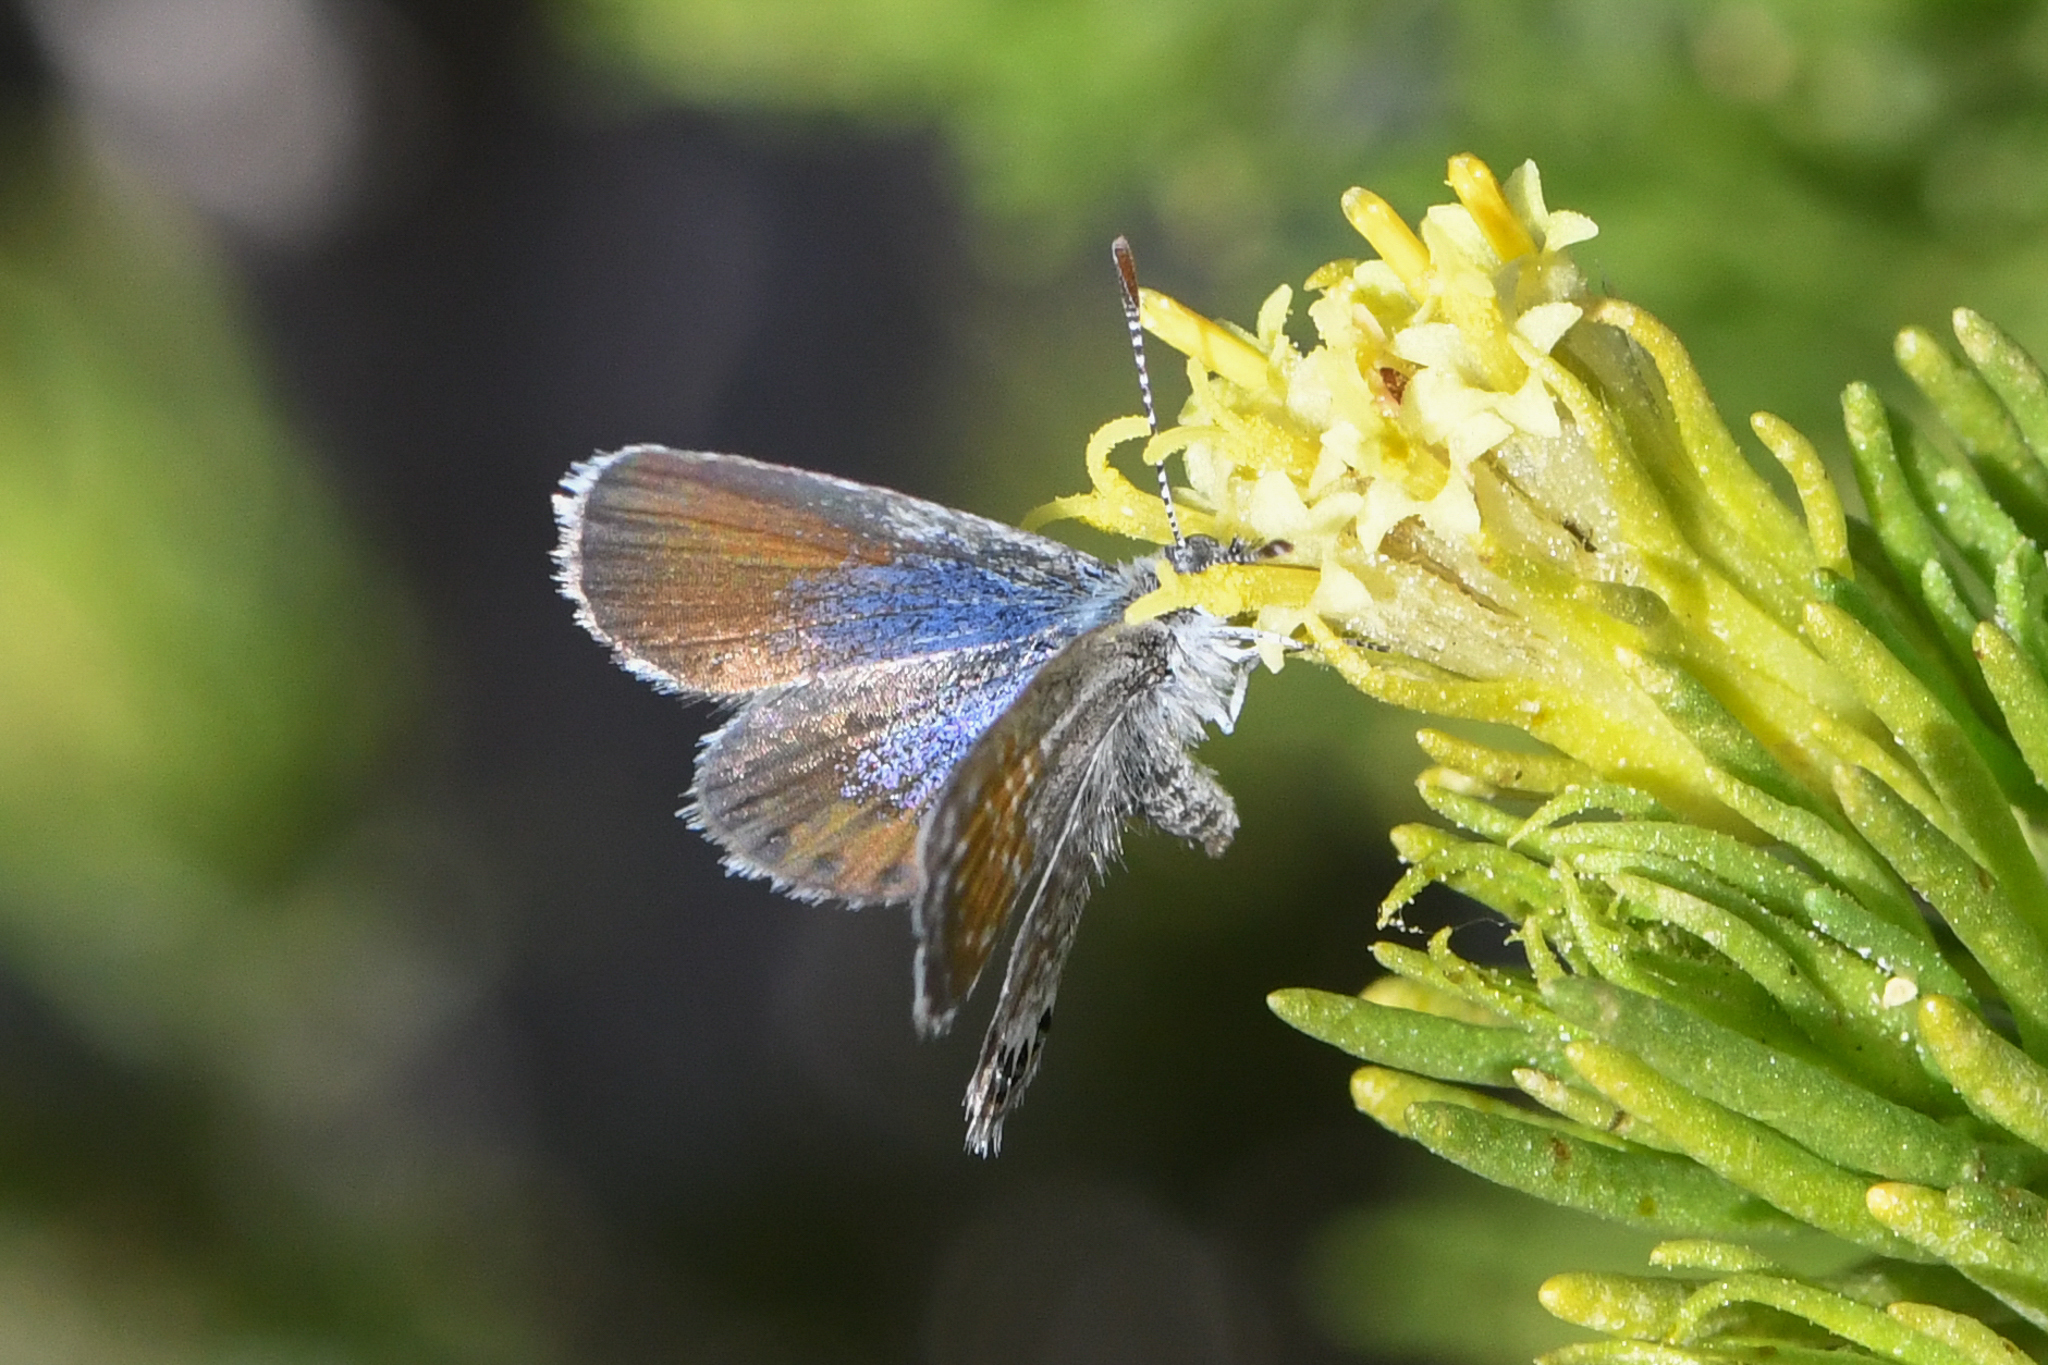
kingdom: Animalia
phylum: Arthropoda
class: Insecta
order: Lepidoptera
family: Lycaenidae
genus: Brephidium
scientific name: Brephidium exilis
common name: Pygmy blue
